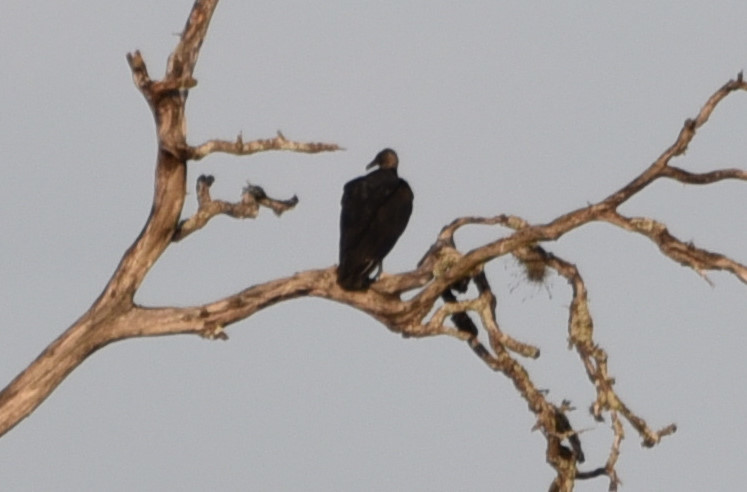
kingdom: Animalia
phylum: Chordata
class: Aves
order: Accipitriformes
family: Cathartidae
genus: Coragyps
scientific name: Coragyps atratus
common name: Black vulture
